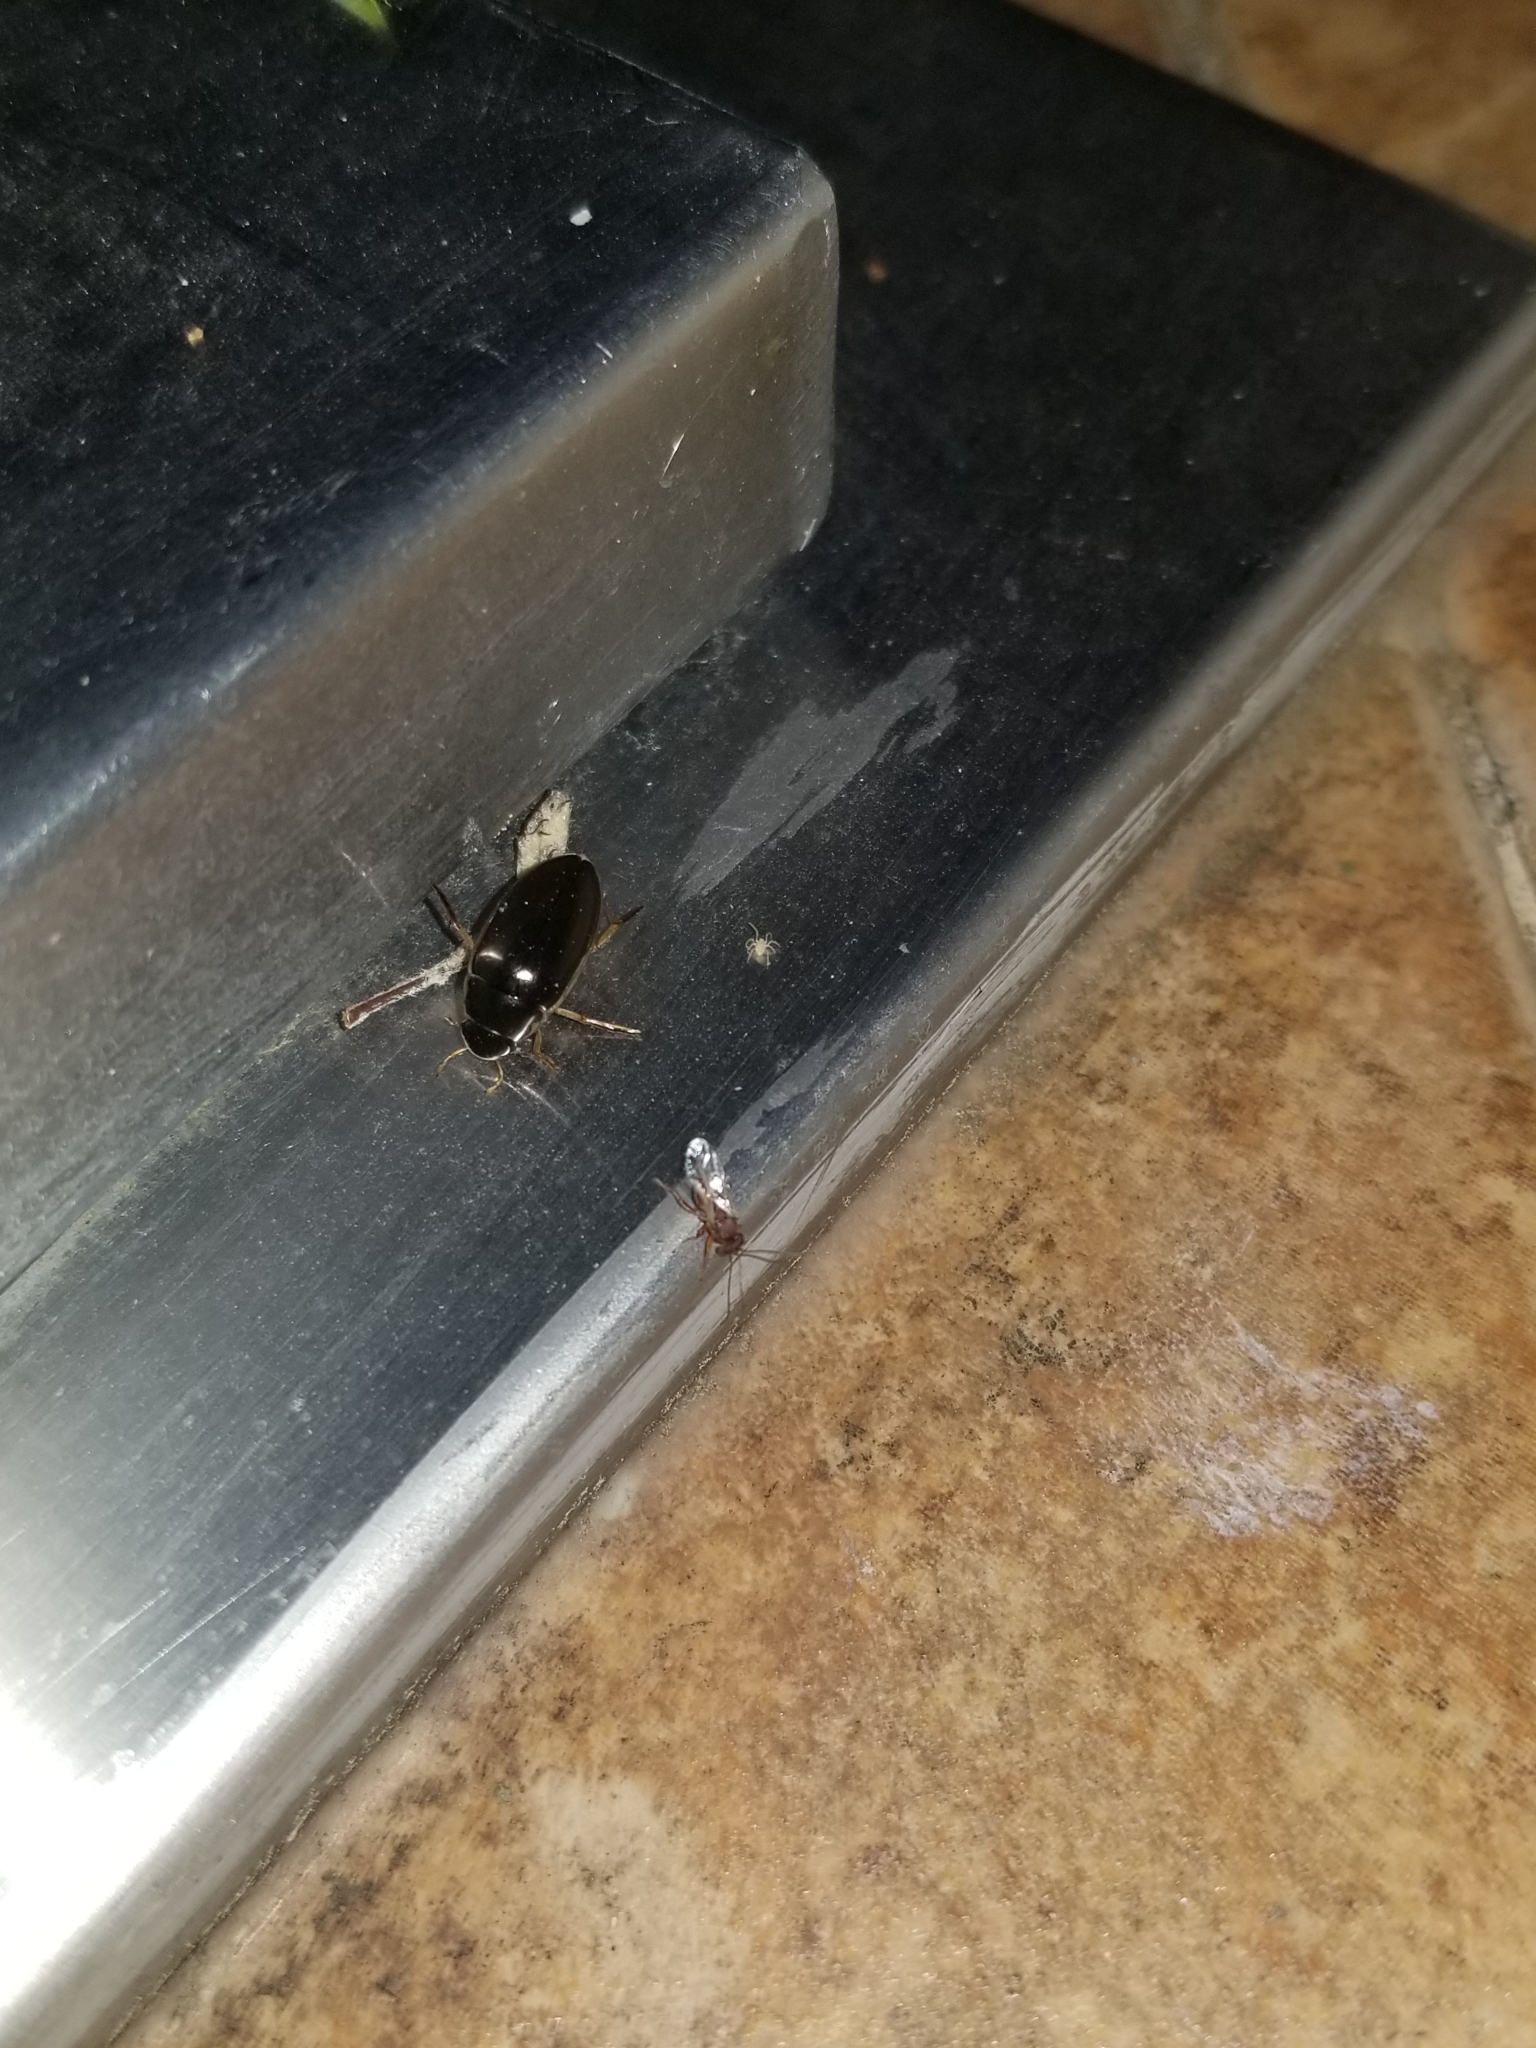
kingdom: Animalia
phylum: Arthropoda
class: Insecta
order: Coleoptera
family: Hydrophilidae
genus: Tropisternus
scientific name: Tropisternus lateralis
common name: Lateral-banded water scavenger beetle
